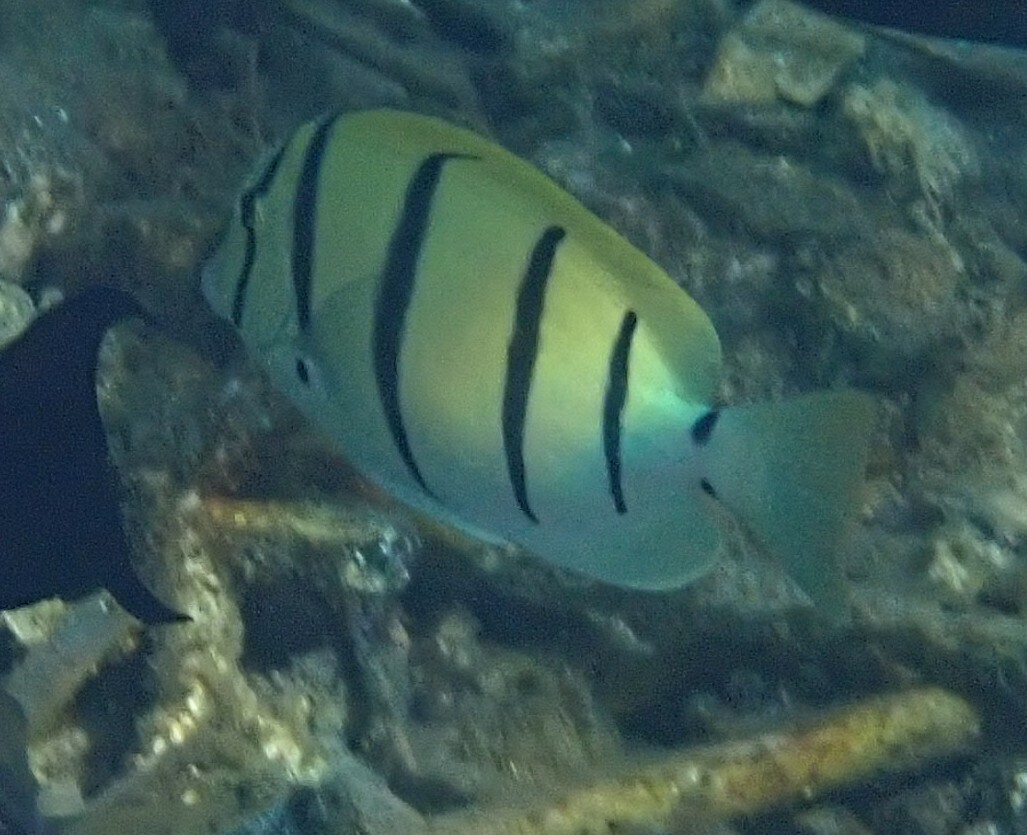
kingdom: Animalia
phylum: Chordata
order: Perciformes
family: Acanthuridae
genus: Acanthurus
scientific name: Acanthurus triostegus
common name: Convict surgeonfish
